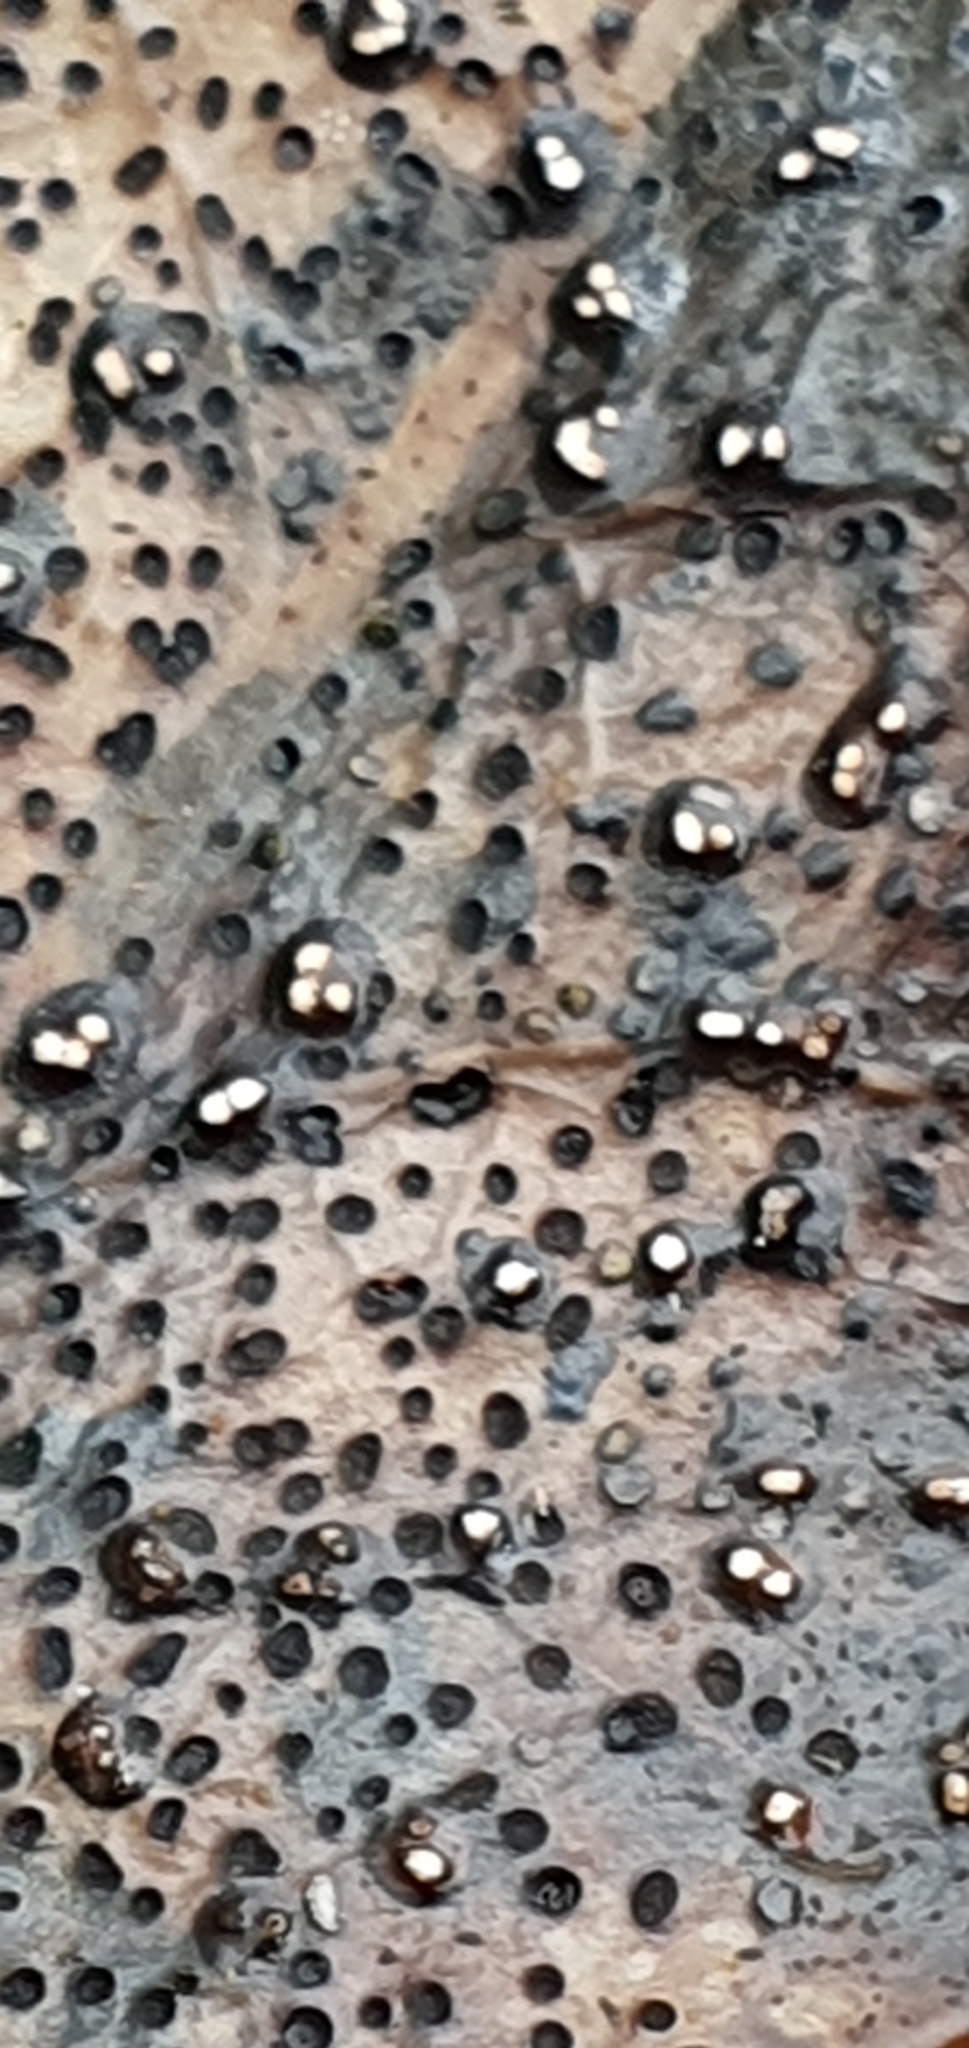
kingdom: Fungi
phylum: Ascomycota
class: Leotiomycetes
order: Helotiales
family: Cenangiaceae
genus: Trochila
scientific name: Trochila ilicina
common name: Holly speckle
